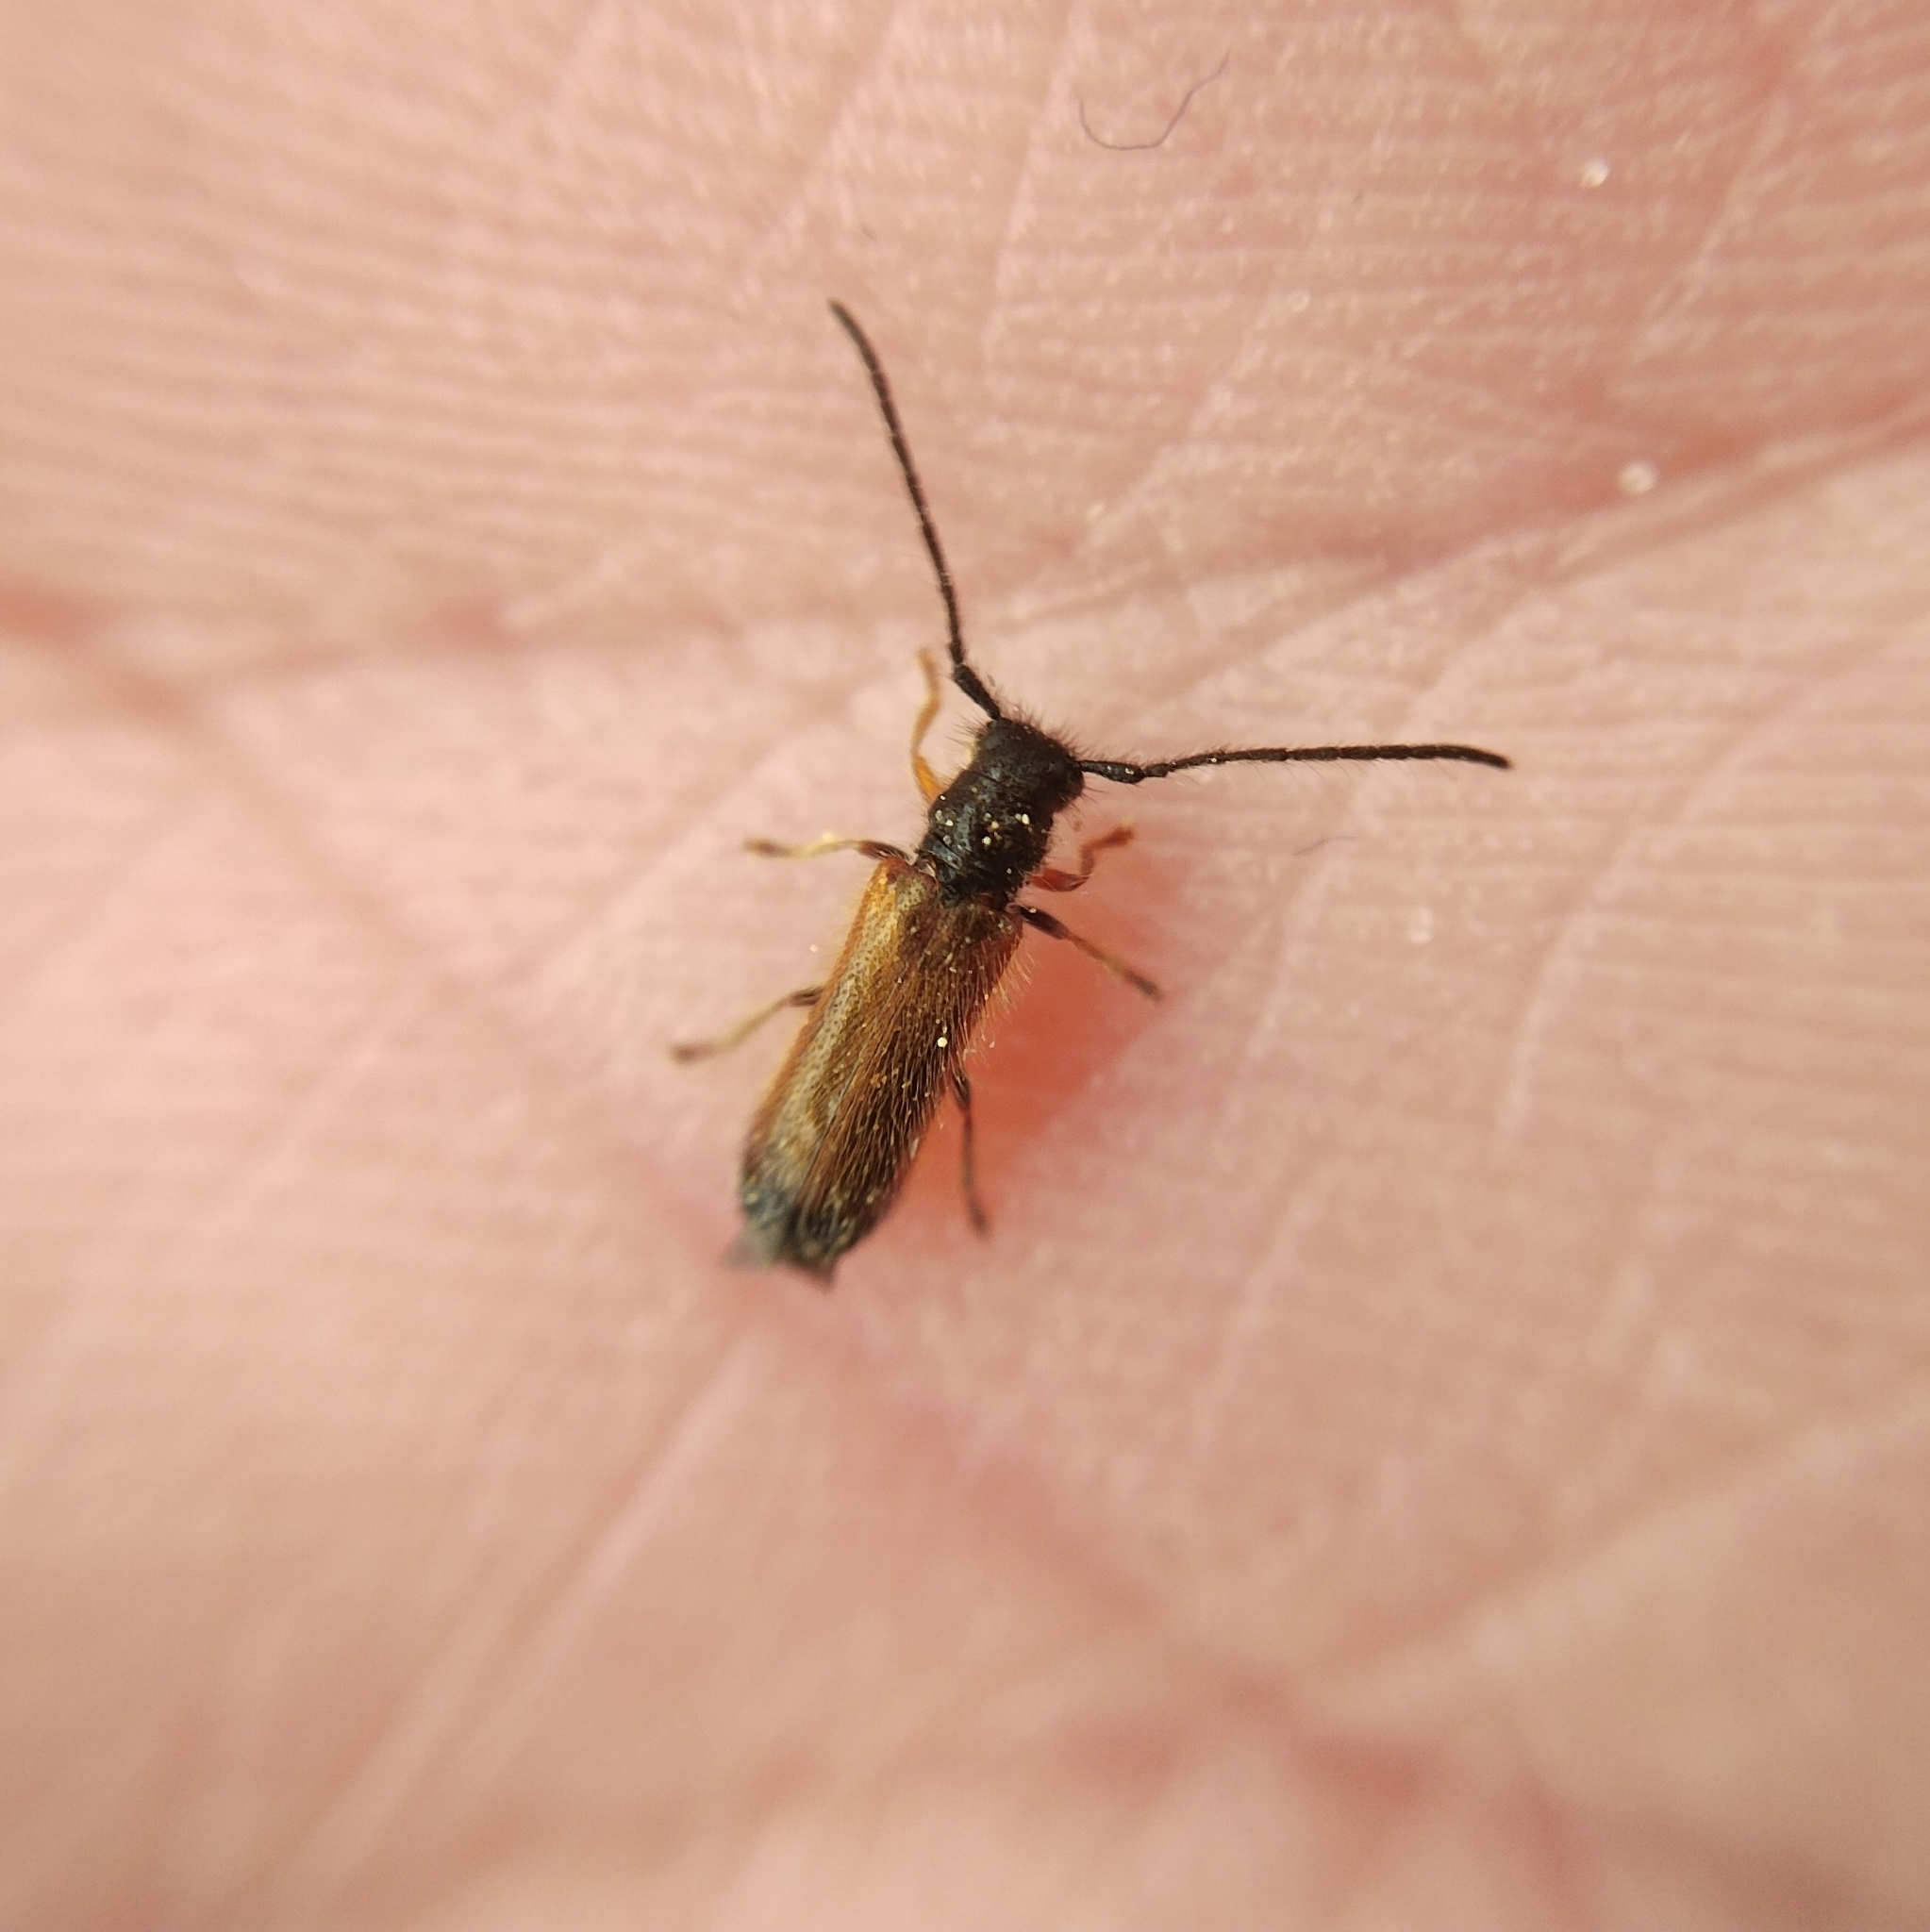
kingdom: Animalia
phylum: Arthropoda
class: Insecta
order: Coleoptera
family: Cerambycidae
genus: Tetrops
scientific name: Tetrops praeustus
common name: Plum beetle
